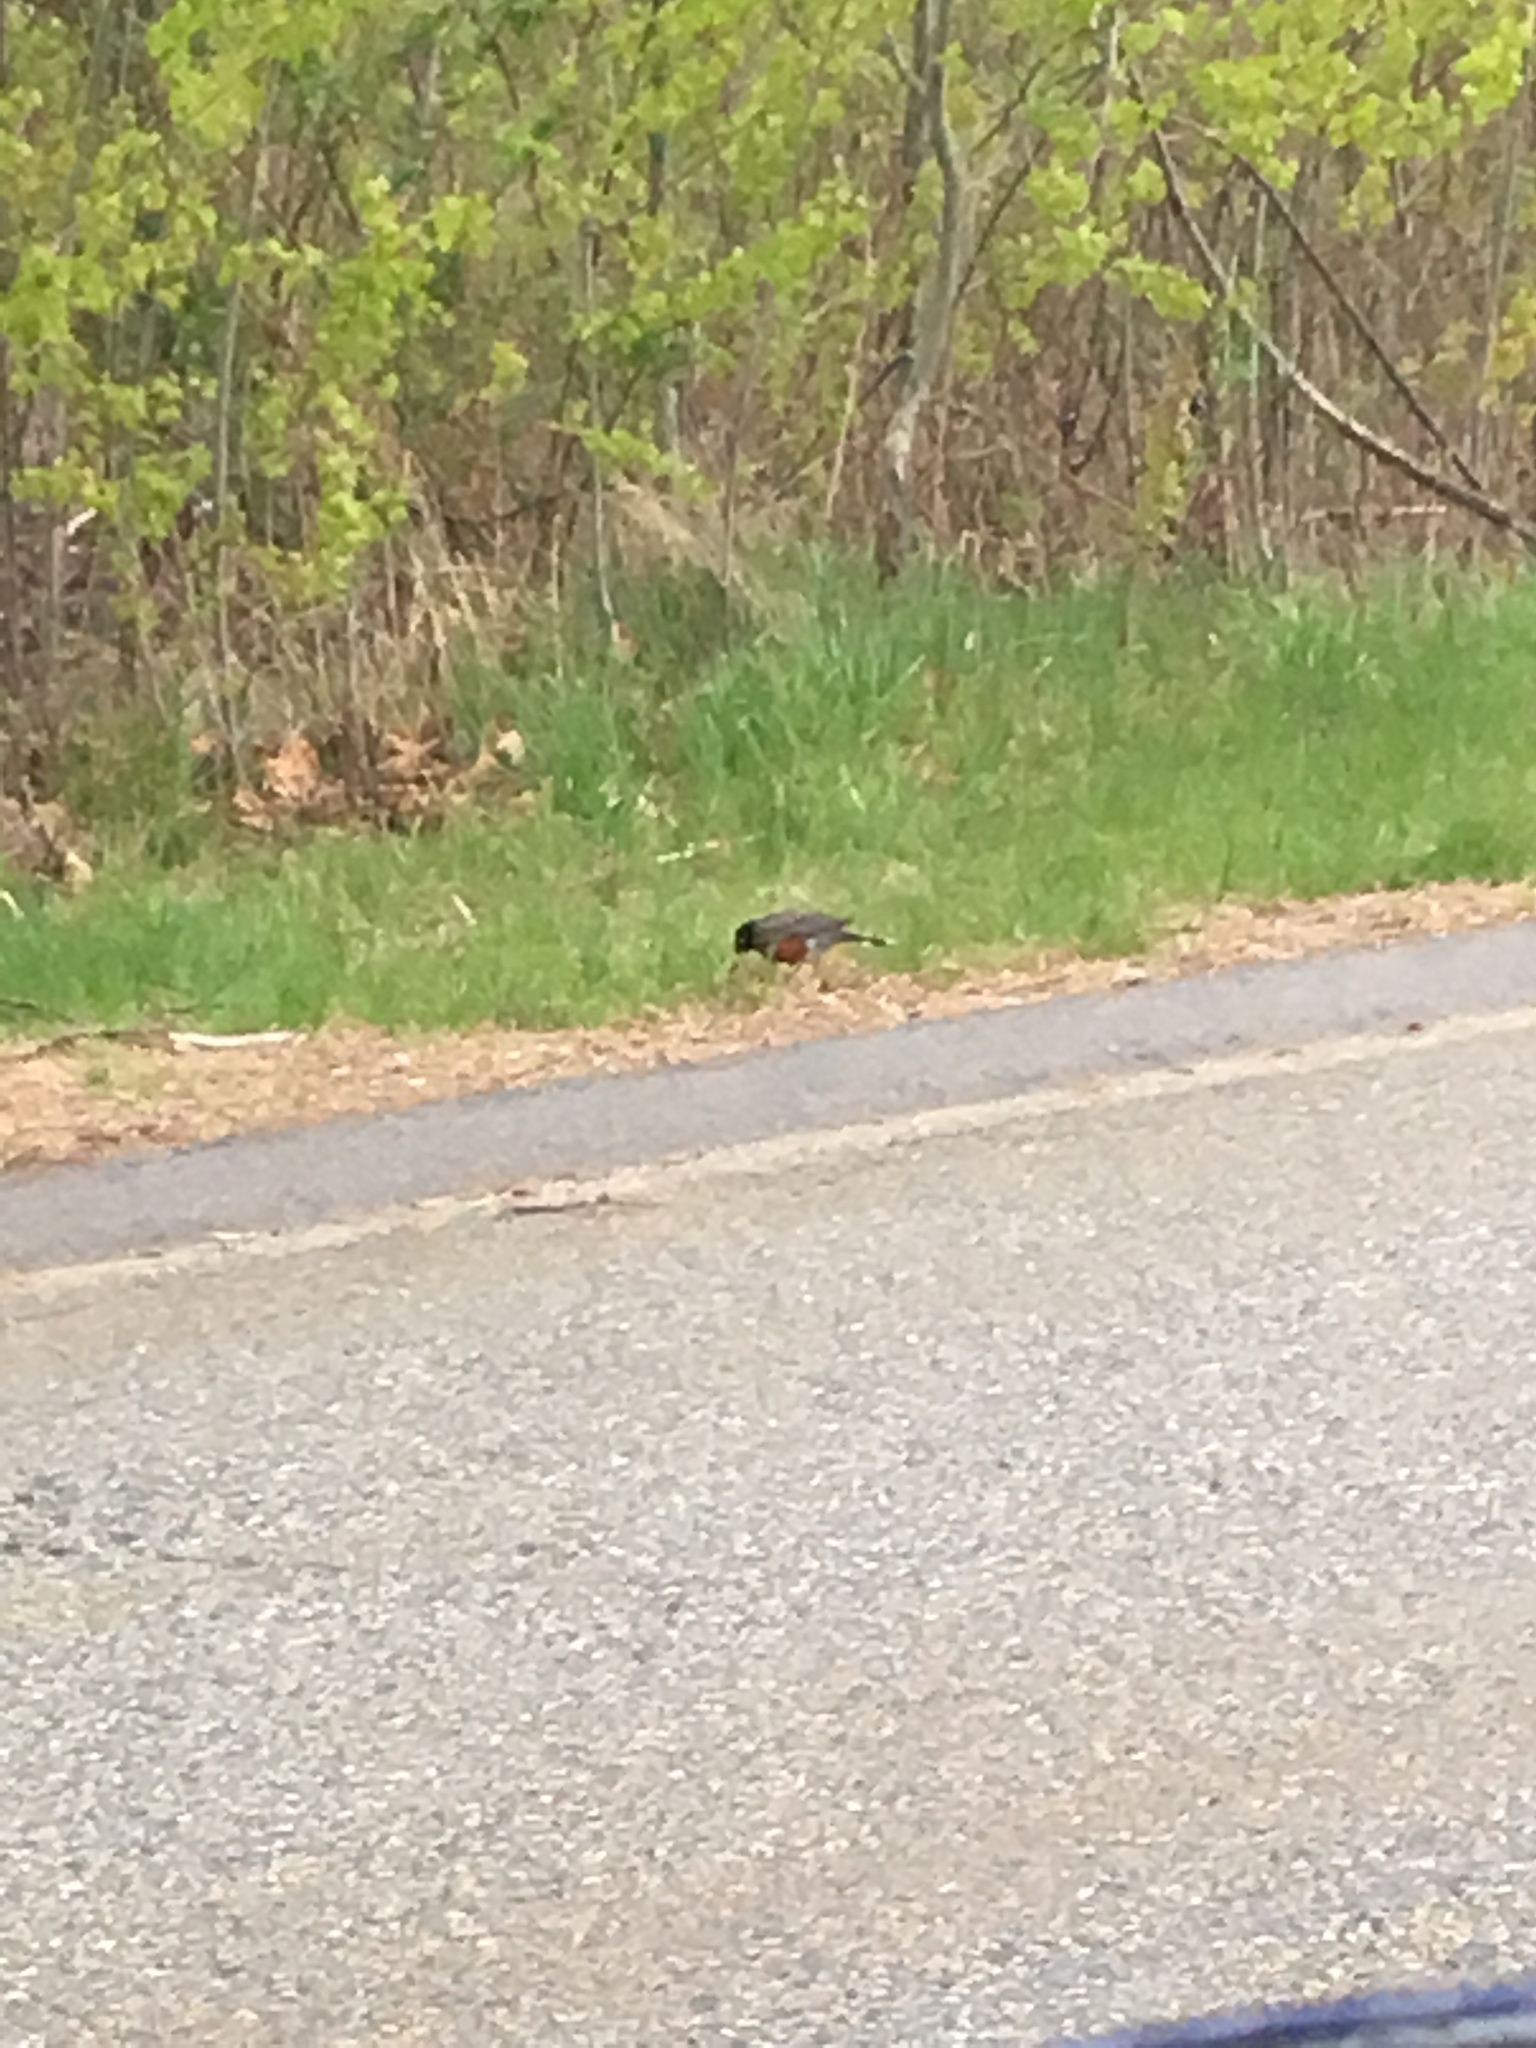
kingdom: Animalia
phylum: Chordata
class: Aves
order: Passeriformes
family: Turdidae
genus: Turdus
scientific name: Turdus migratorius
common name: American robin
